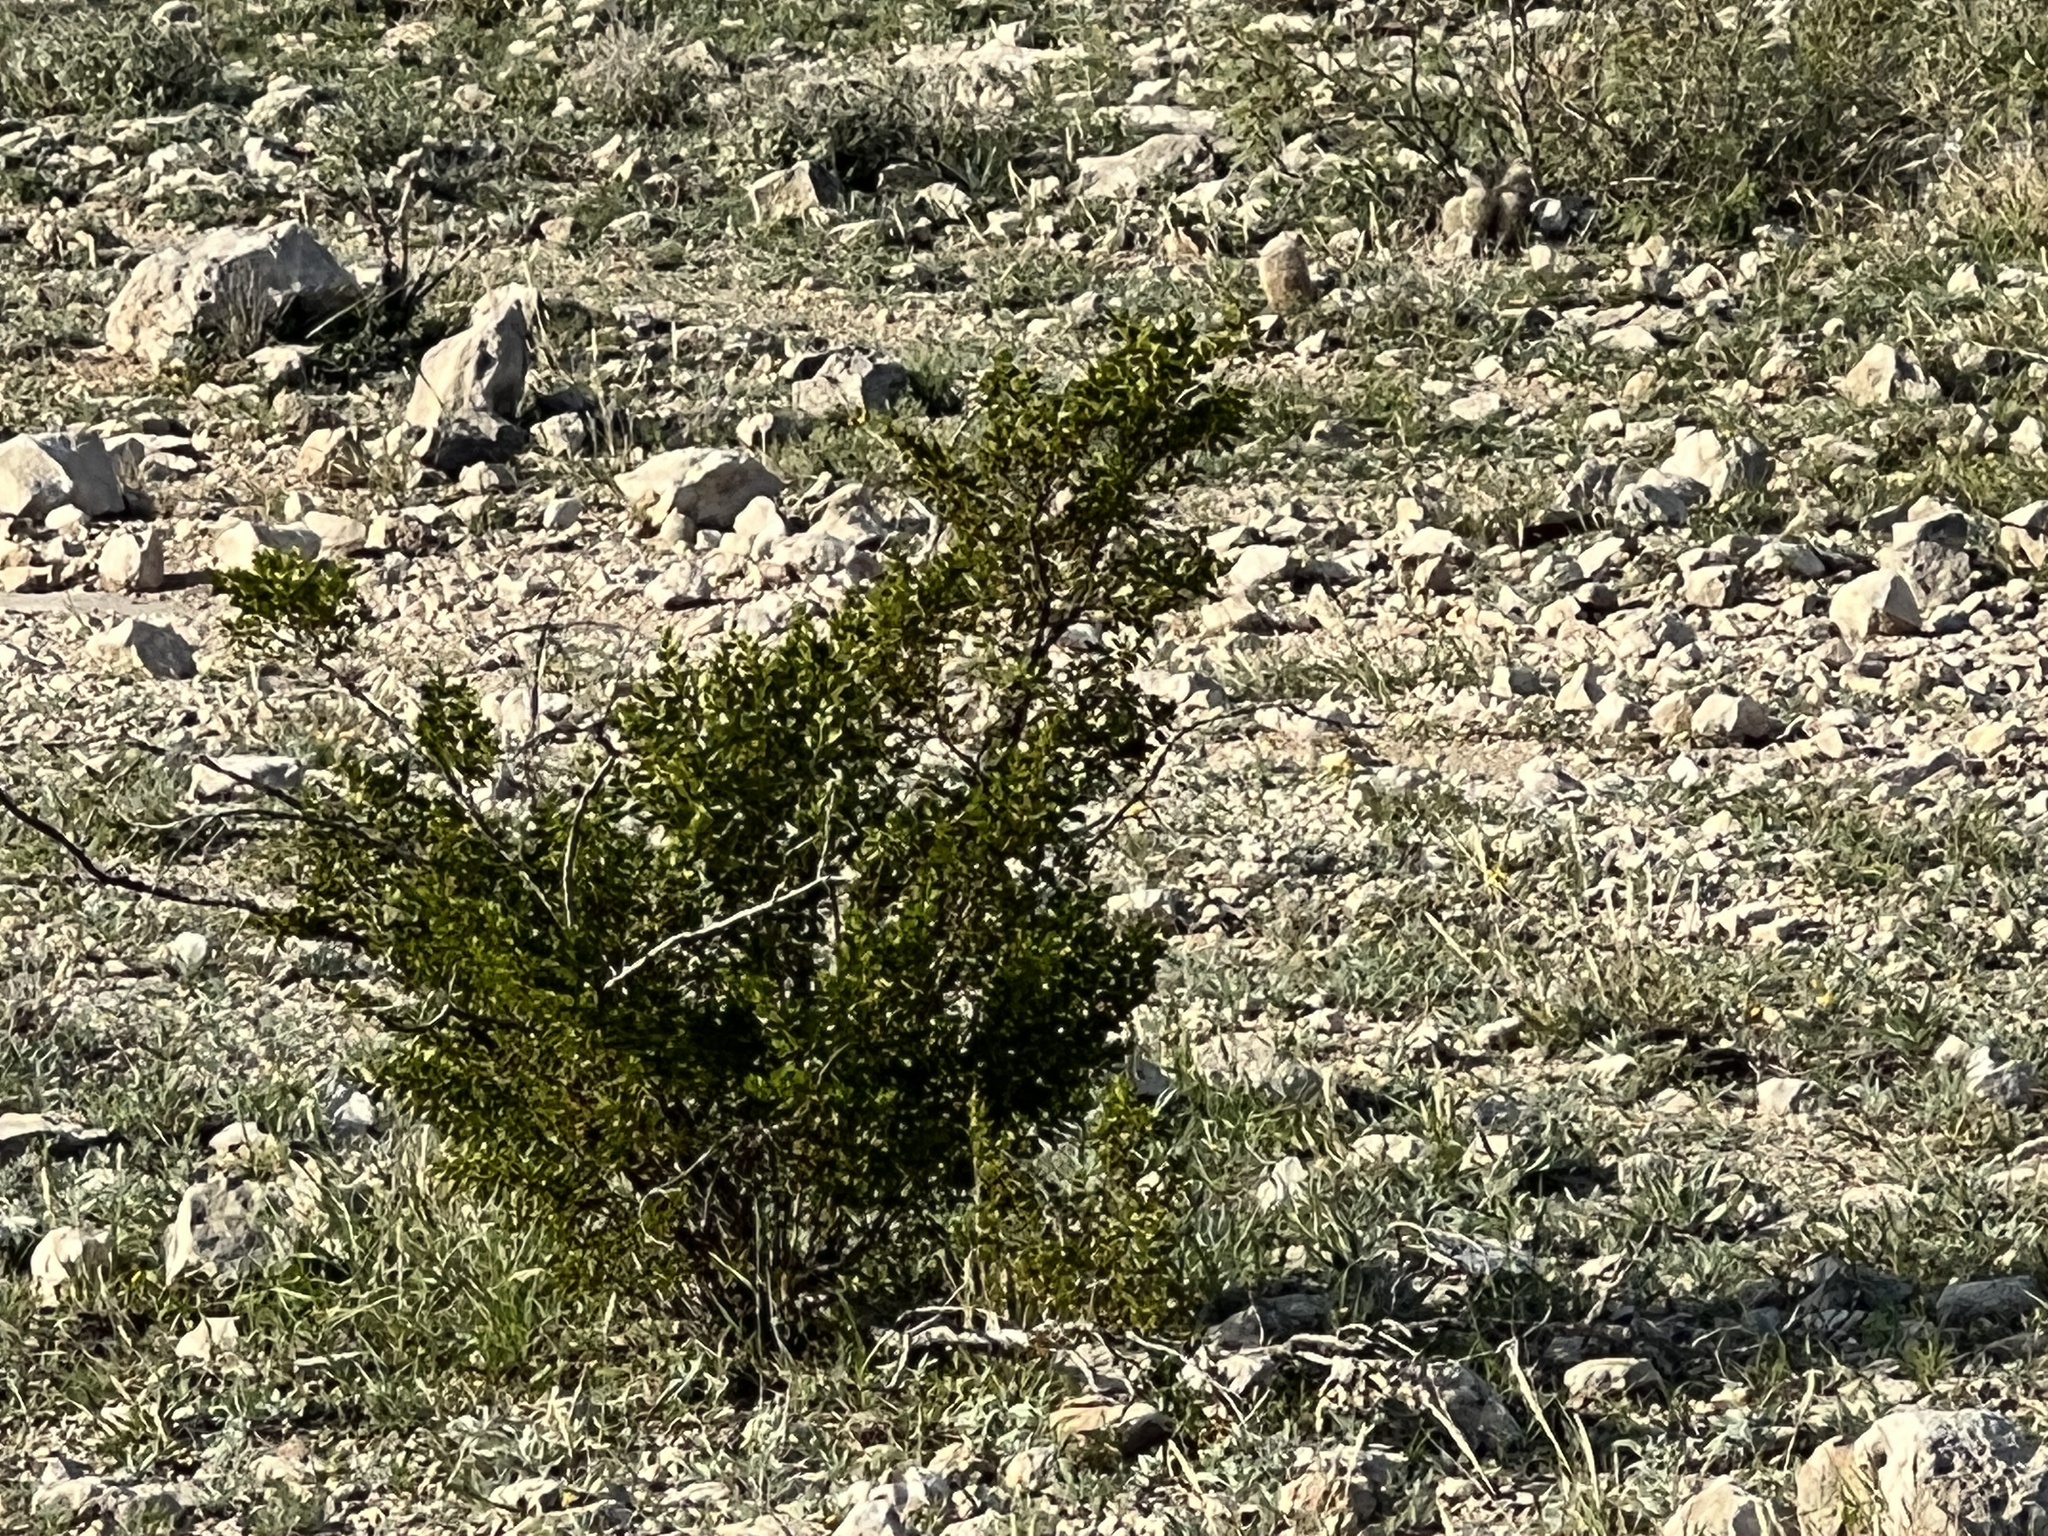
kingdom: Plantae
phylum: Tracheophyta
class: Magnoliopsida
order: Zygophyllales
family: Zygophyllaceae
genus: Larrea
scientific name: Larrea tridentata
